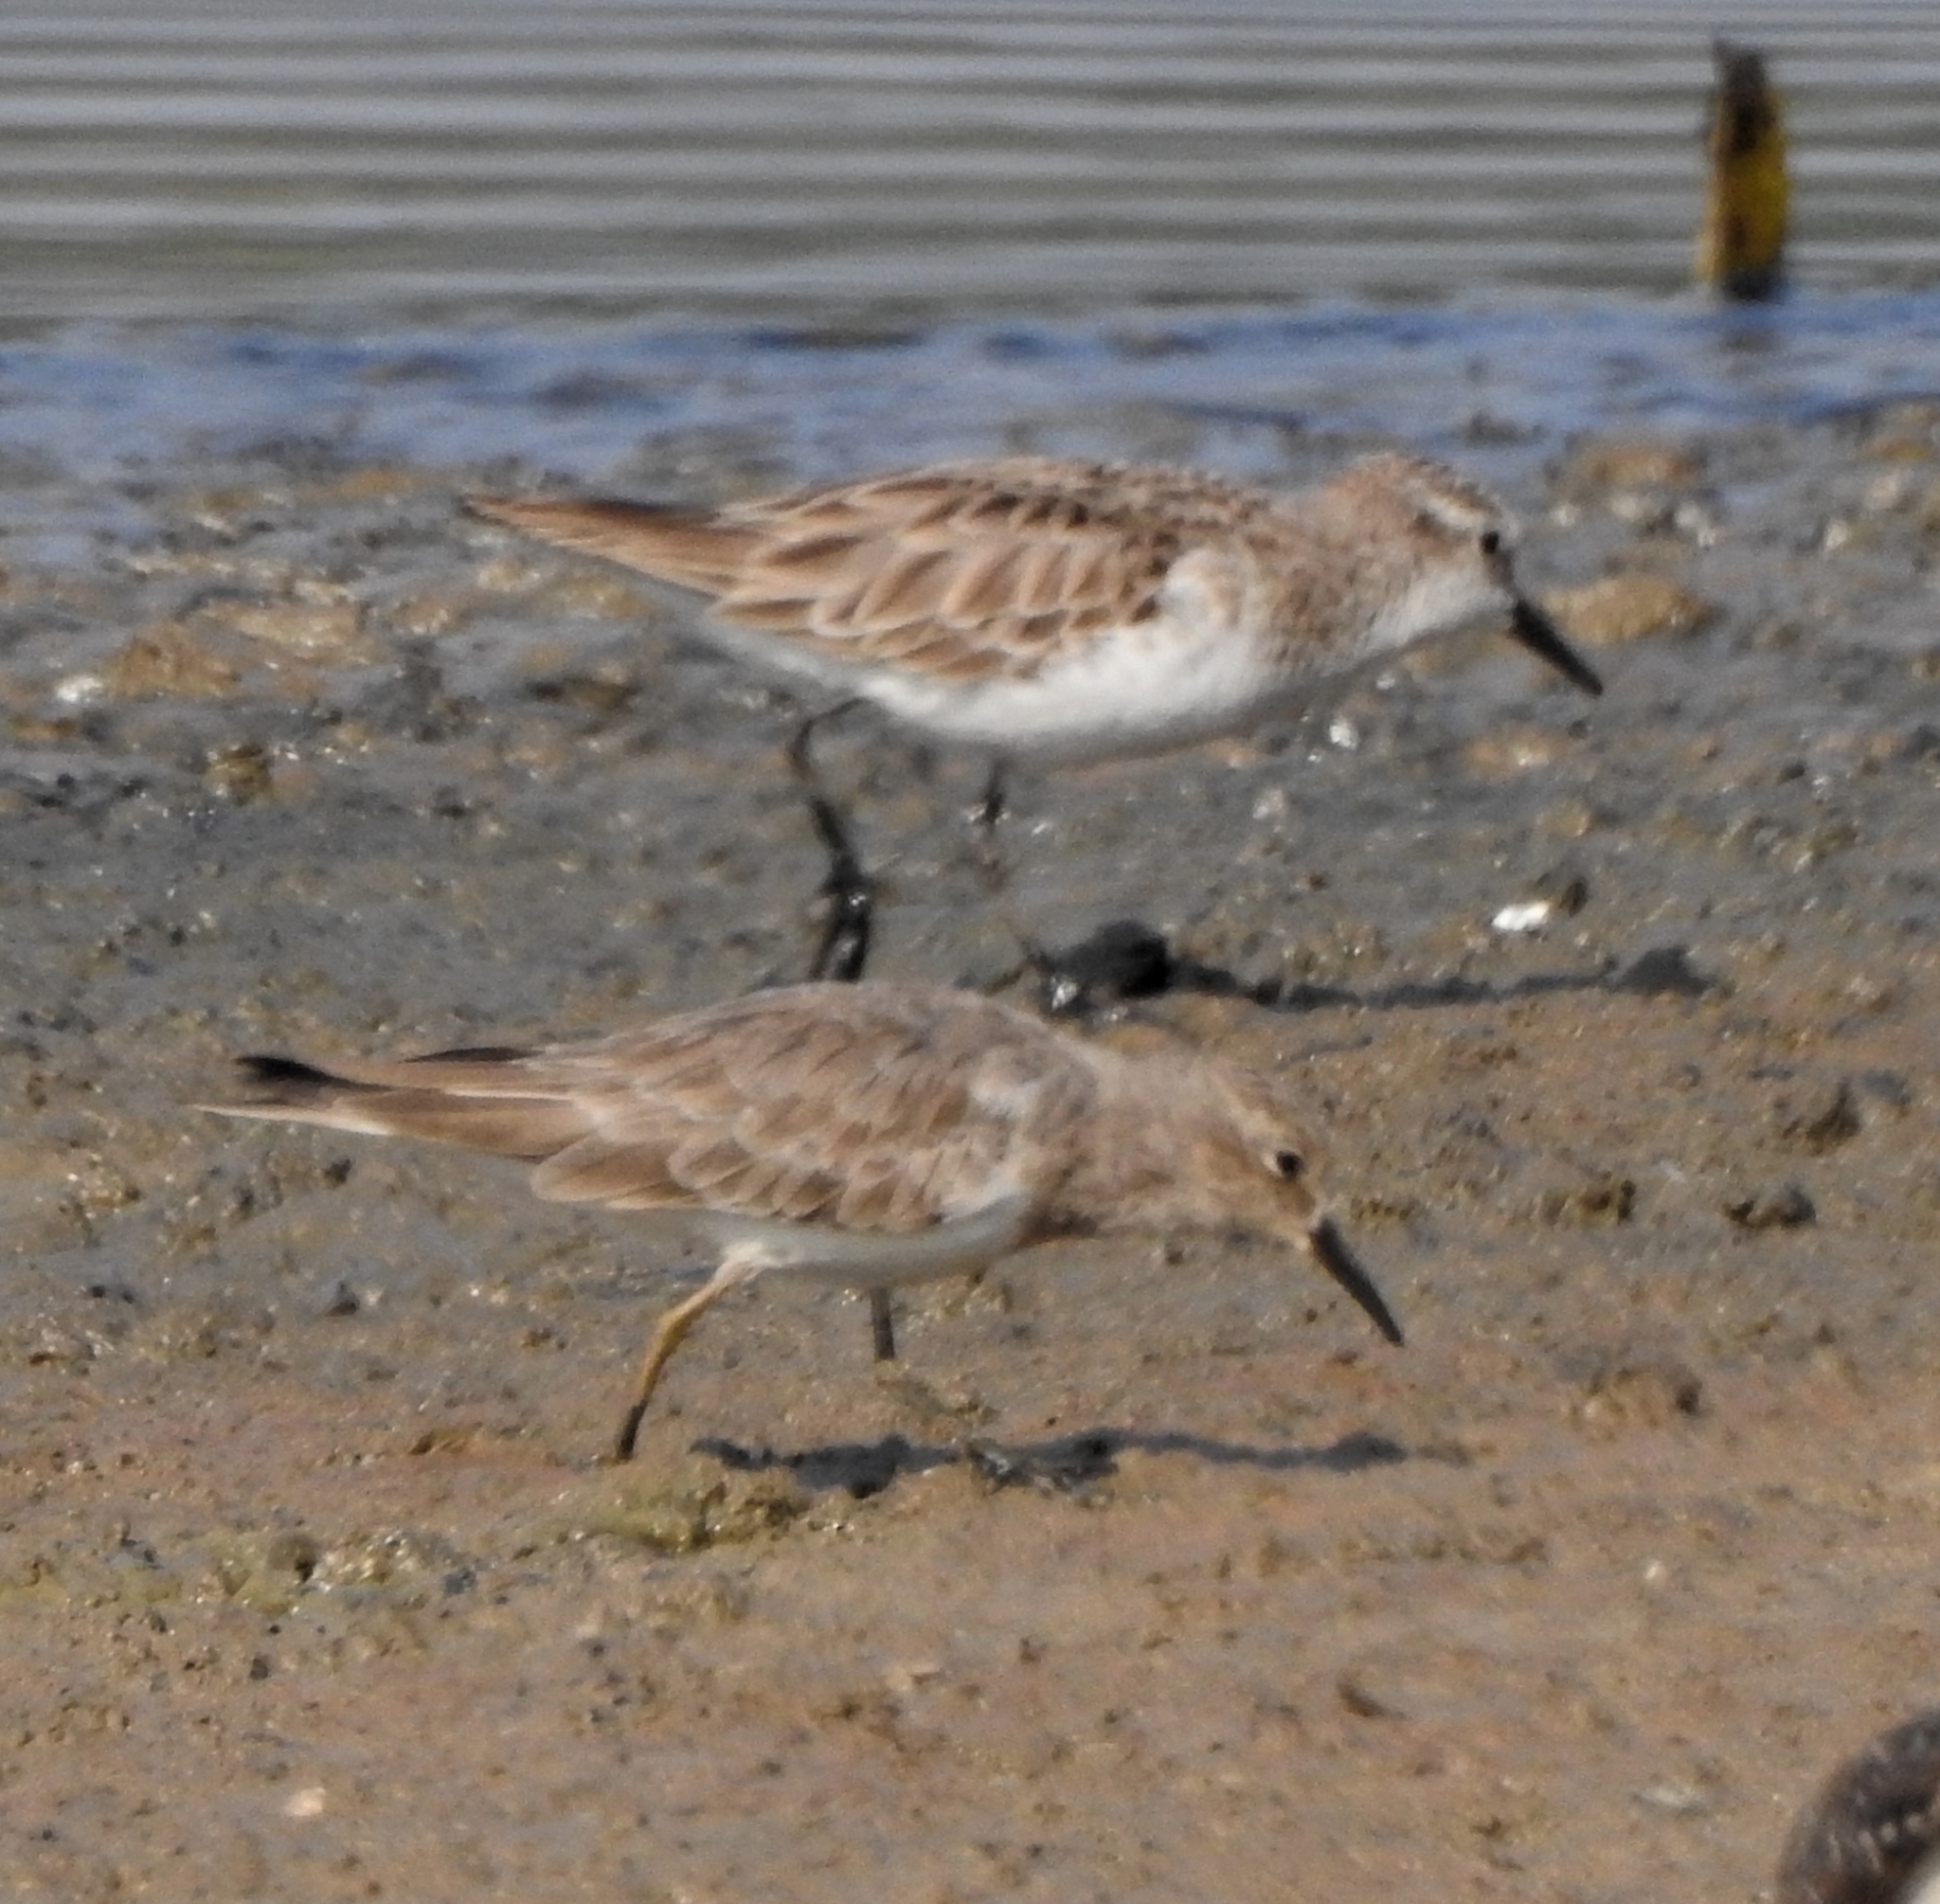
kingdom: Animalia
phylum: Chordata
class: Aves
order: Charadriiformes
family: Scolopacidae
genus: Calidris
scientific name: Calidris minuta
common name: Little stint
